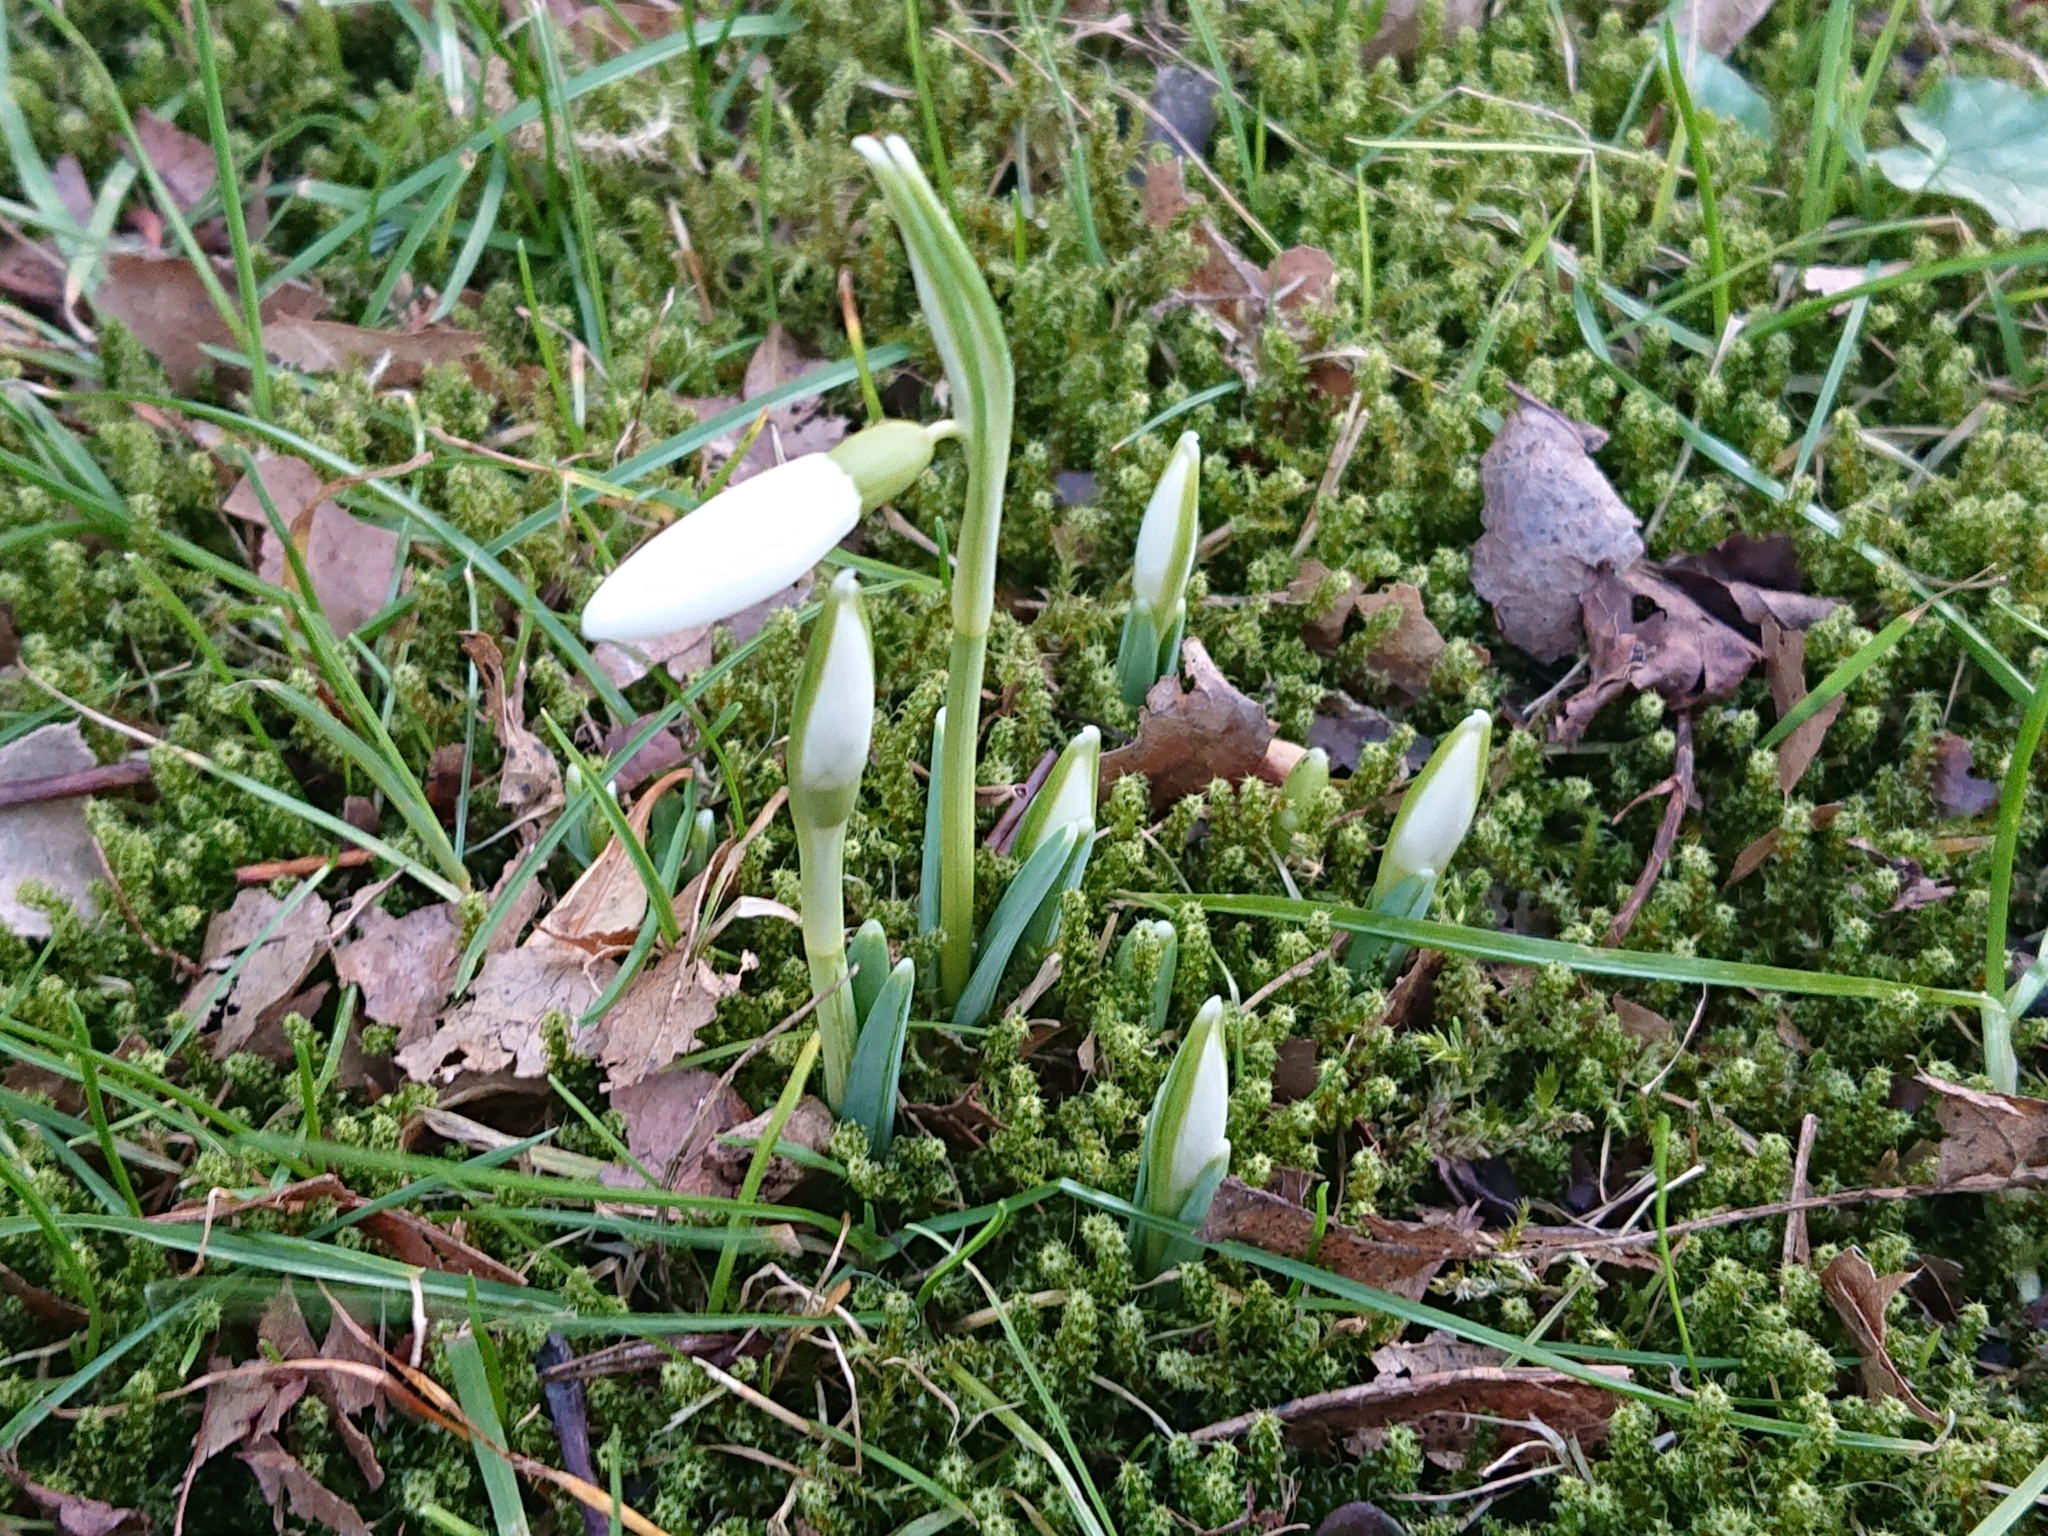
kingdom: Plantae
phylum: Tracheophyta
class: Liliopsida
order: Asparagales
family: Amaryllidaceae
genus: Galanthus
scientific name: Galanthus nivalis
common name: Snowdrop
